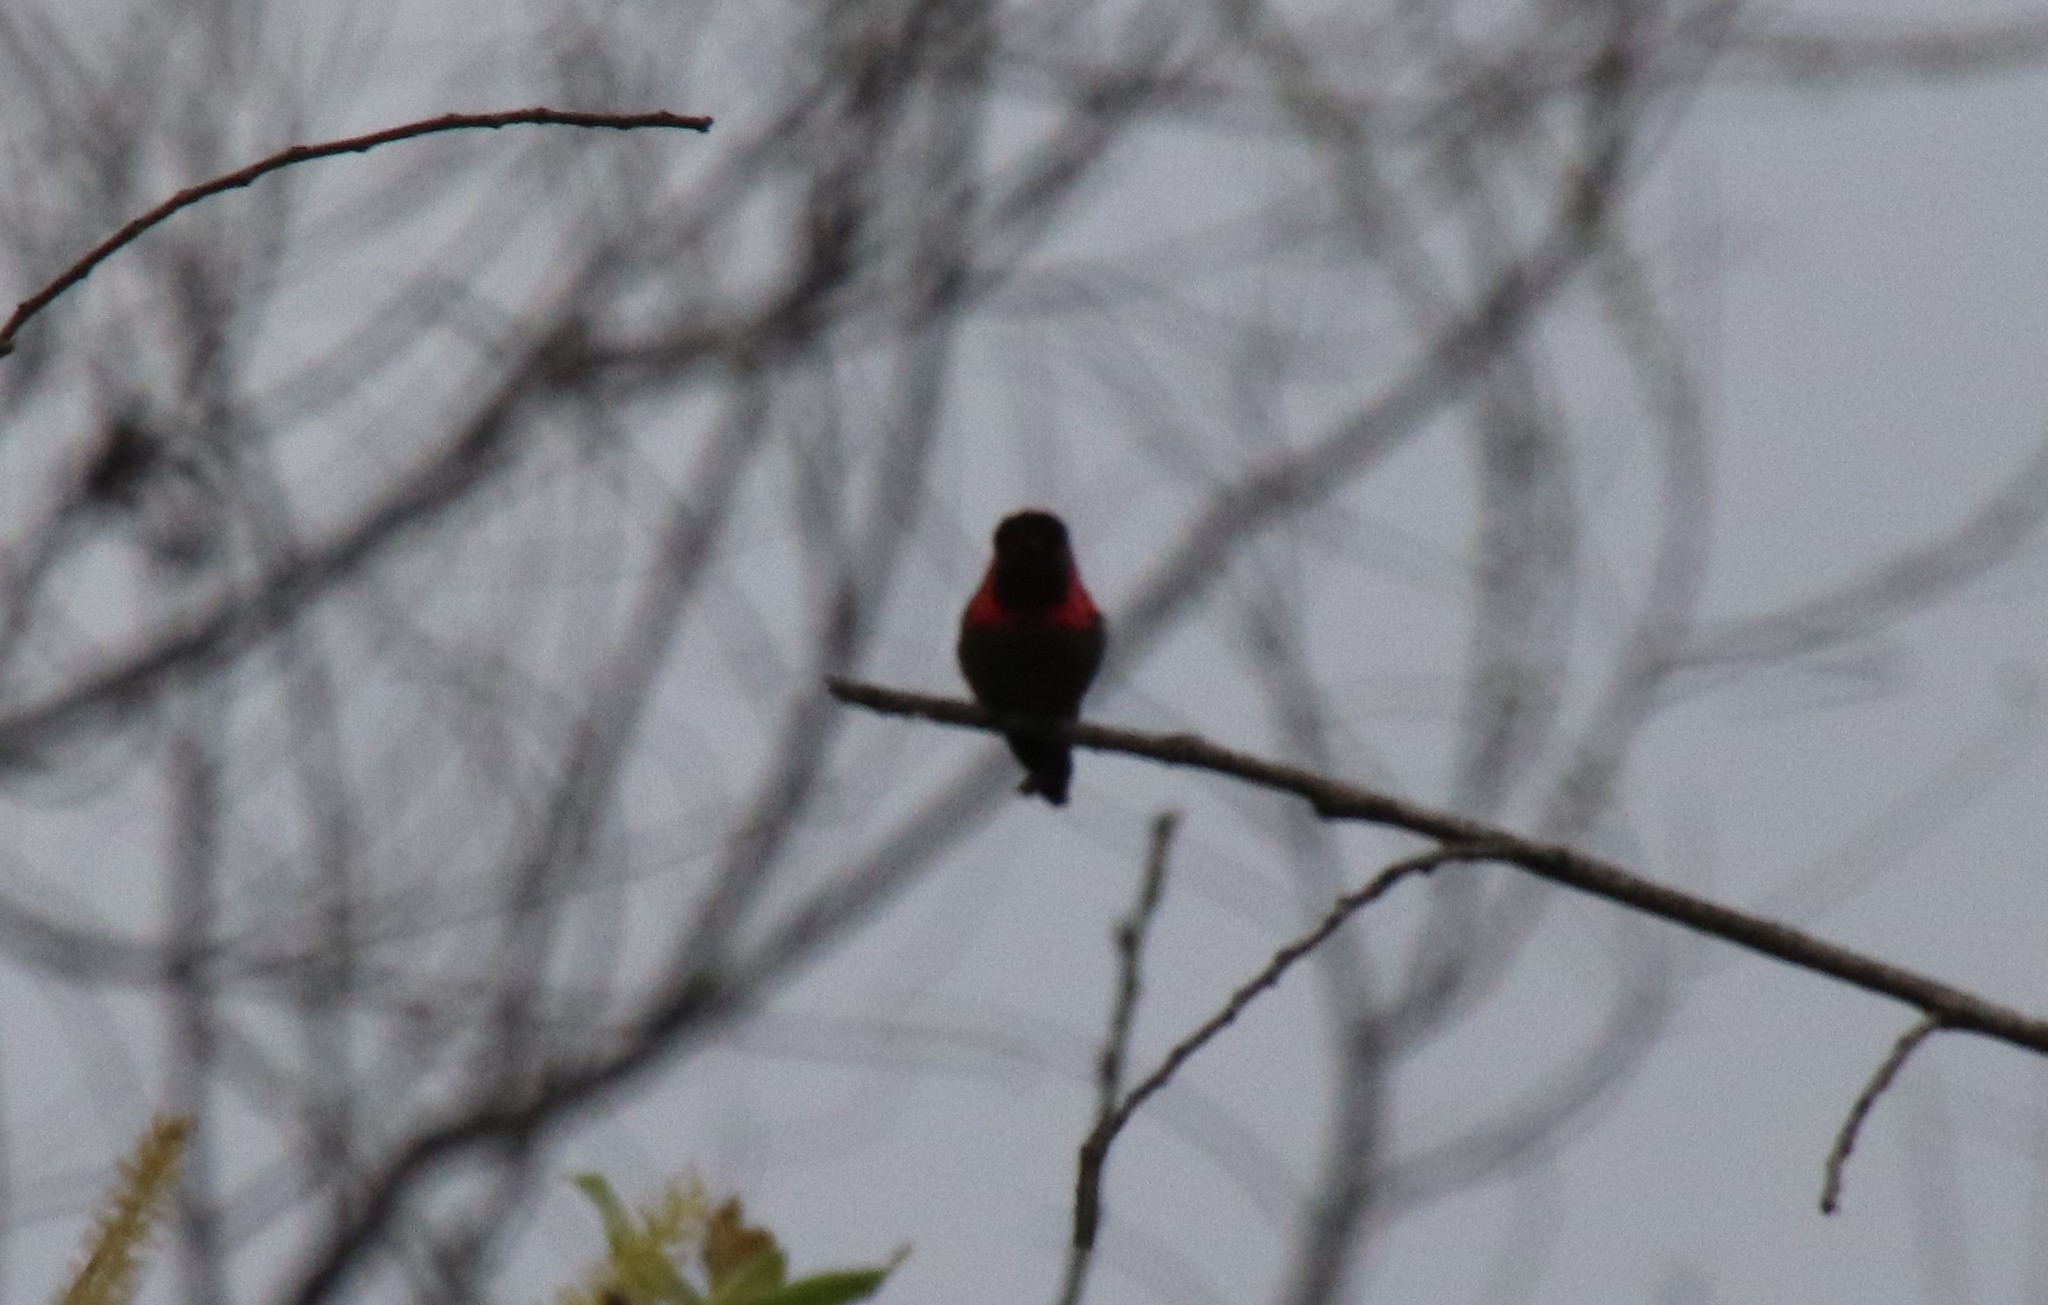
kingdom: Animalia
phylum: Chordata
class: Aves
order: Apodiformes
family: Trochilidae
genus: Calypte
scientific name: Calypte anna
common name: Anna's hummingbird
